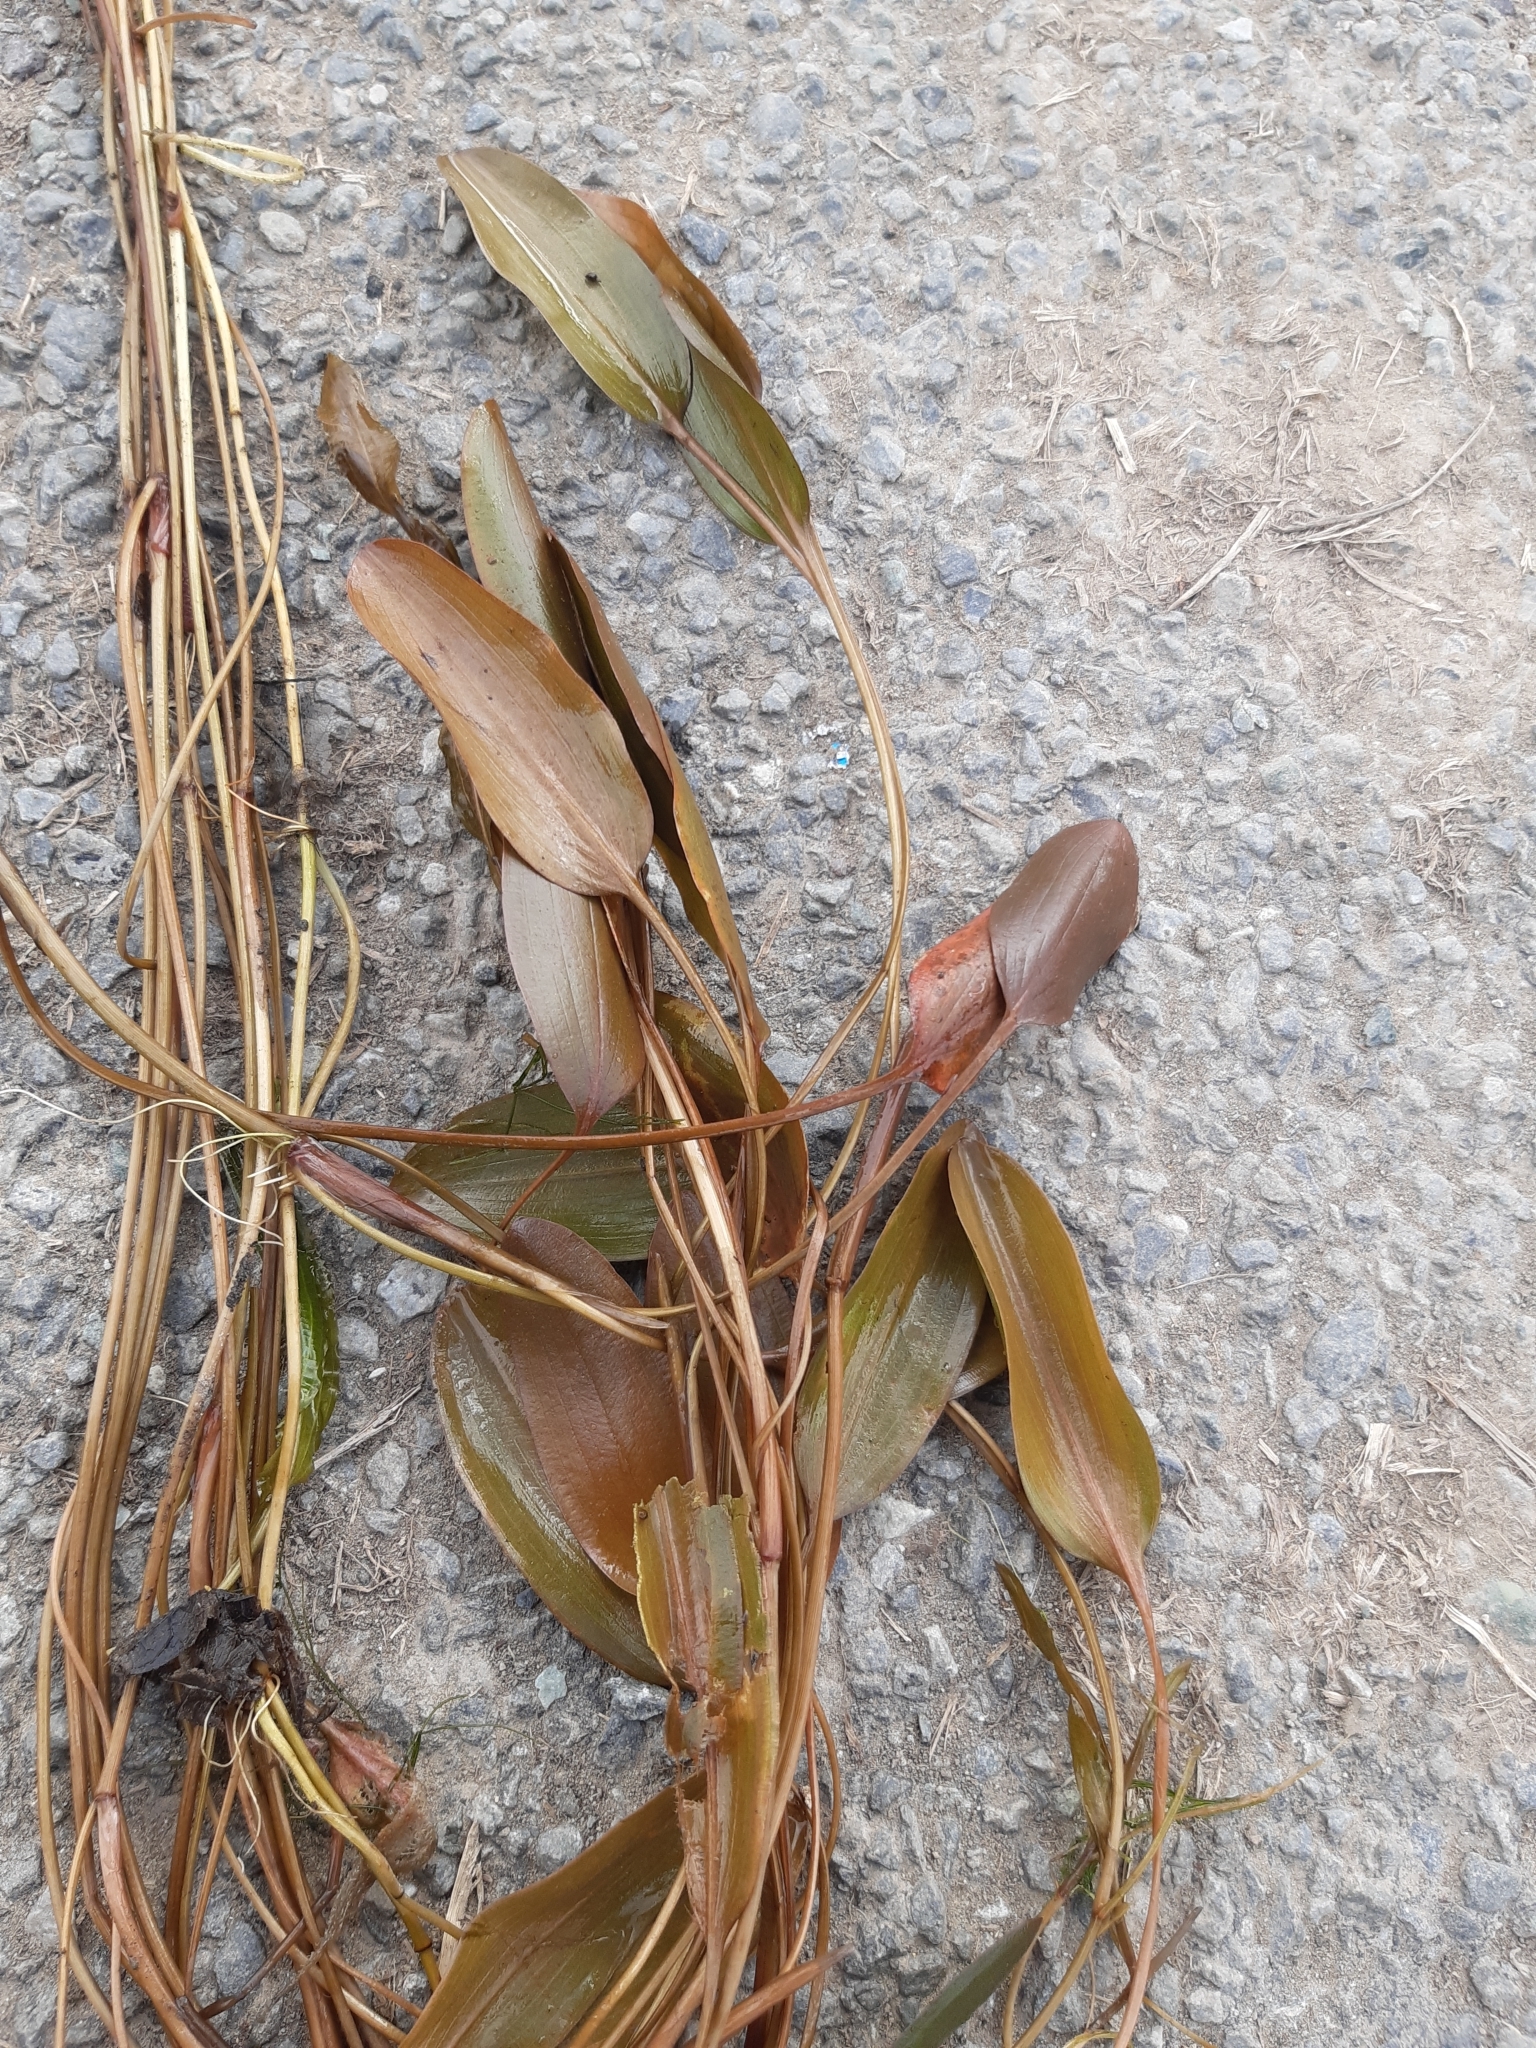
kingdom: Plantae
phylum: Tracheophyta
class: Liliopsida
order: Alismatales
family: Potamogetonaceae
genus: Potamogeton
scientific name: Potamogeton cheesemanii
